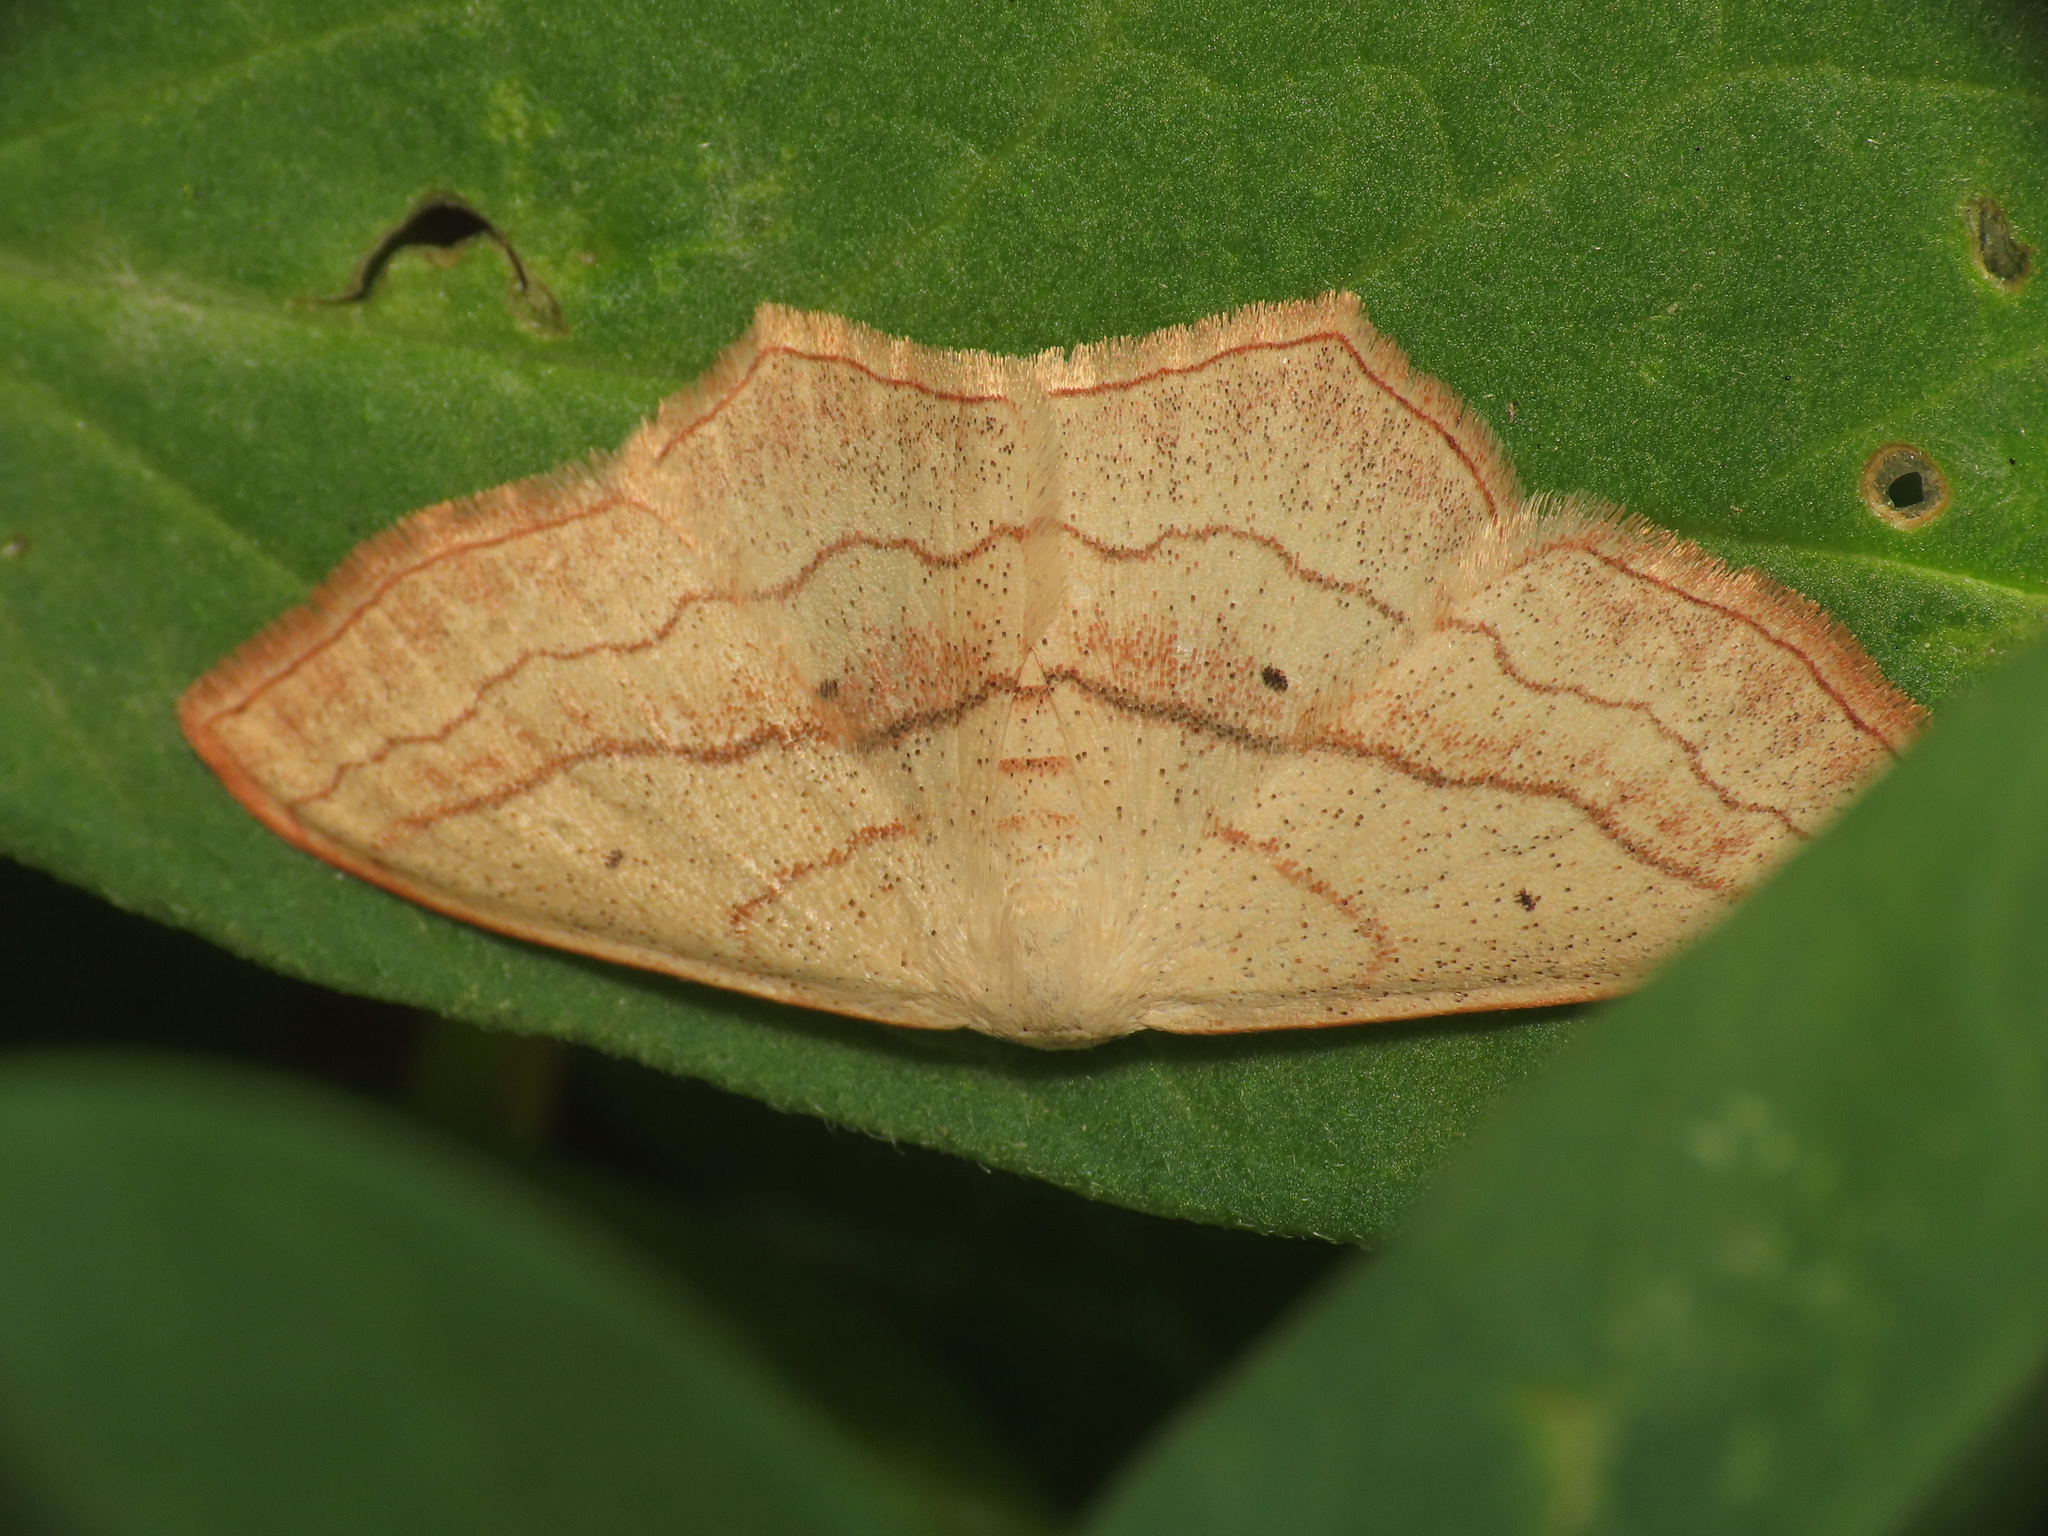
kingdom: Animalia
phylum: Arthropoda
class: Insecta
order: Lepidoptera
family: Geometridae
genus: Scopula
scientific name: Scopula imitaria
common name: Small blood-vein
